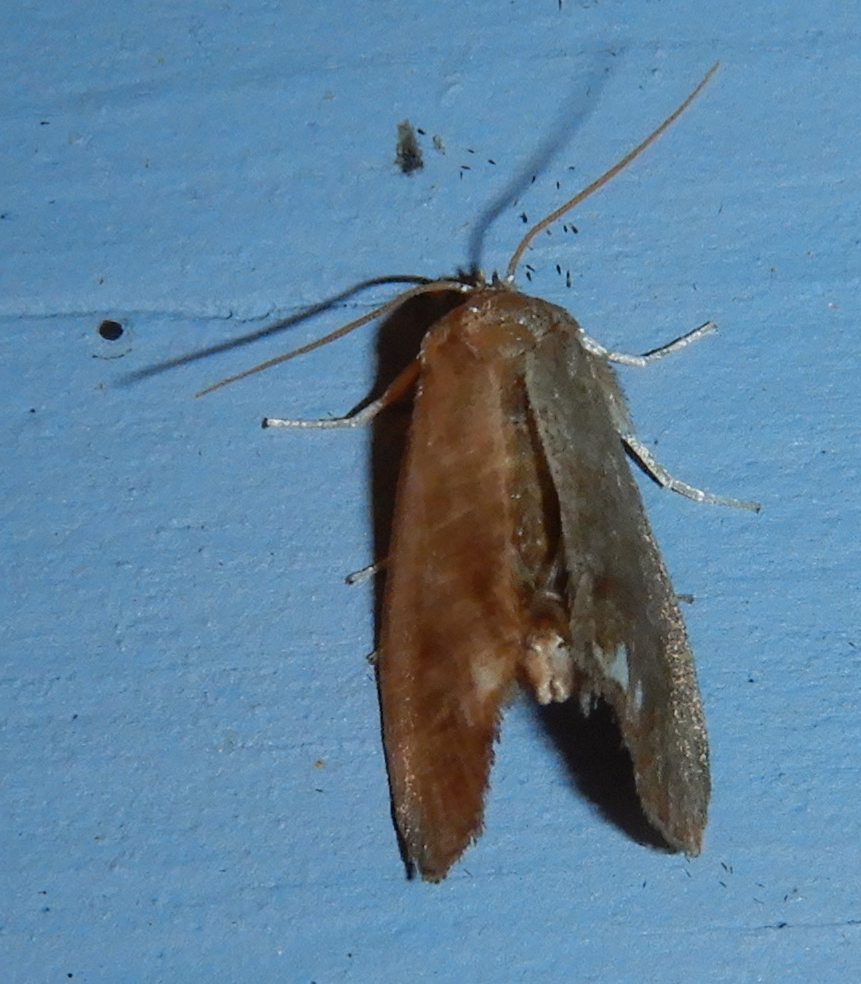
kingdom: Animalia
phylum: Arthropoda
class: Insecta
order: Lepidoptera
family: Limacodidae
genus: Packardia
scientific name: Packardia geminata
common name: Jeweled tailed slug moth
